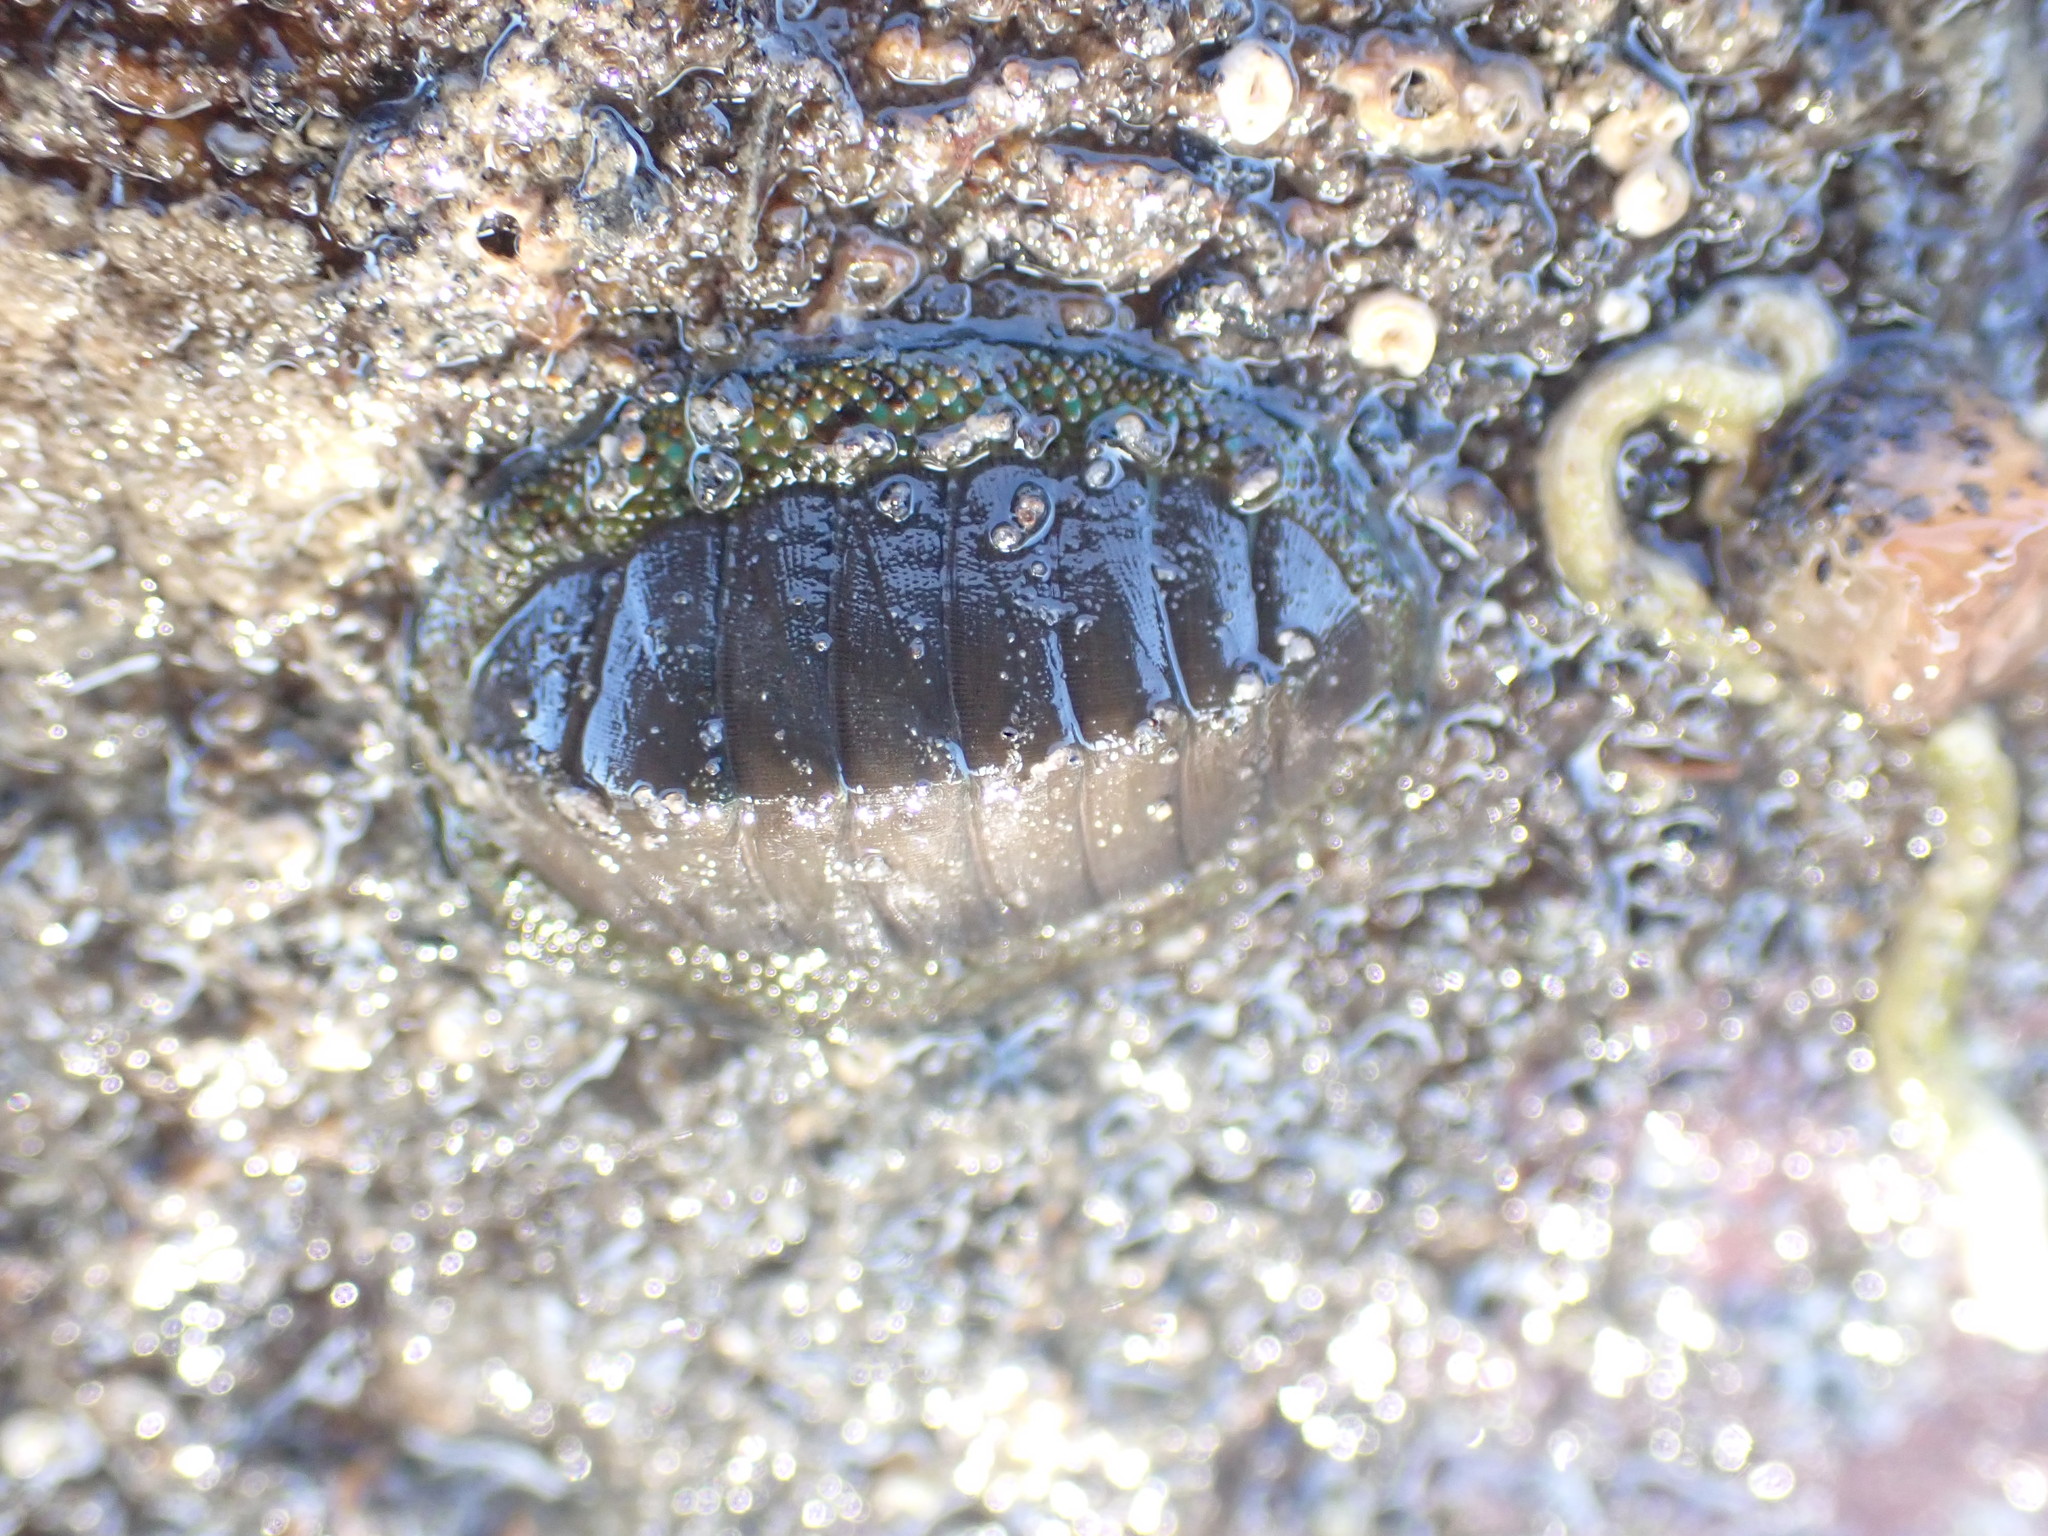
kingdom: Animalia
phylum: Mollusca
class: Polyplacophora
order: Chitonida
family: Chitonidae
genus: Chiton
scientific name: Chiton glaucus
